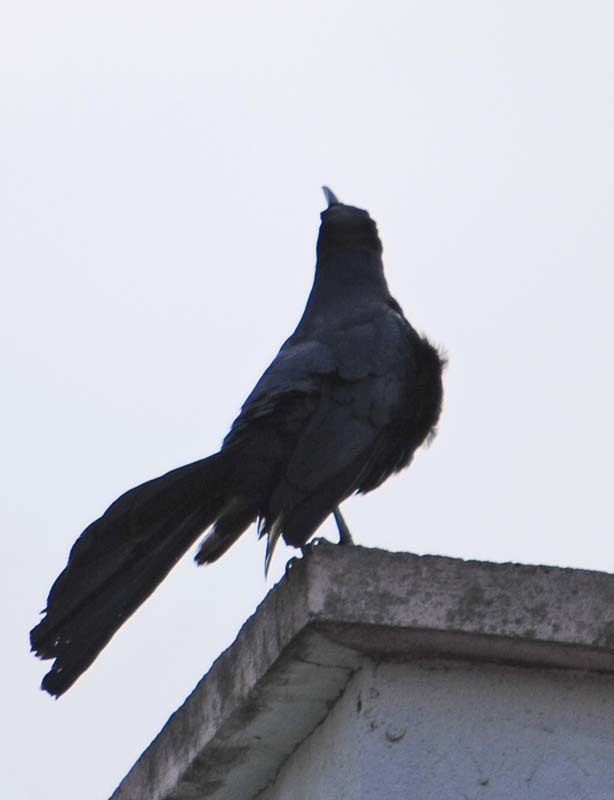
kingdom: Animalia
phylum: Chordata
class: Aves
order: Passeriformes
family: Icteridae
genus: Quiscalus
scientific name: Quiscalus mexicanus
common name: Great-tailed grackle
